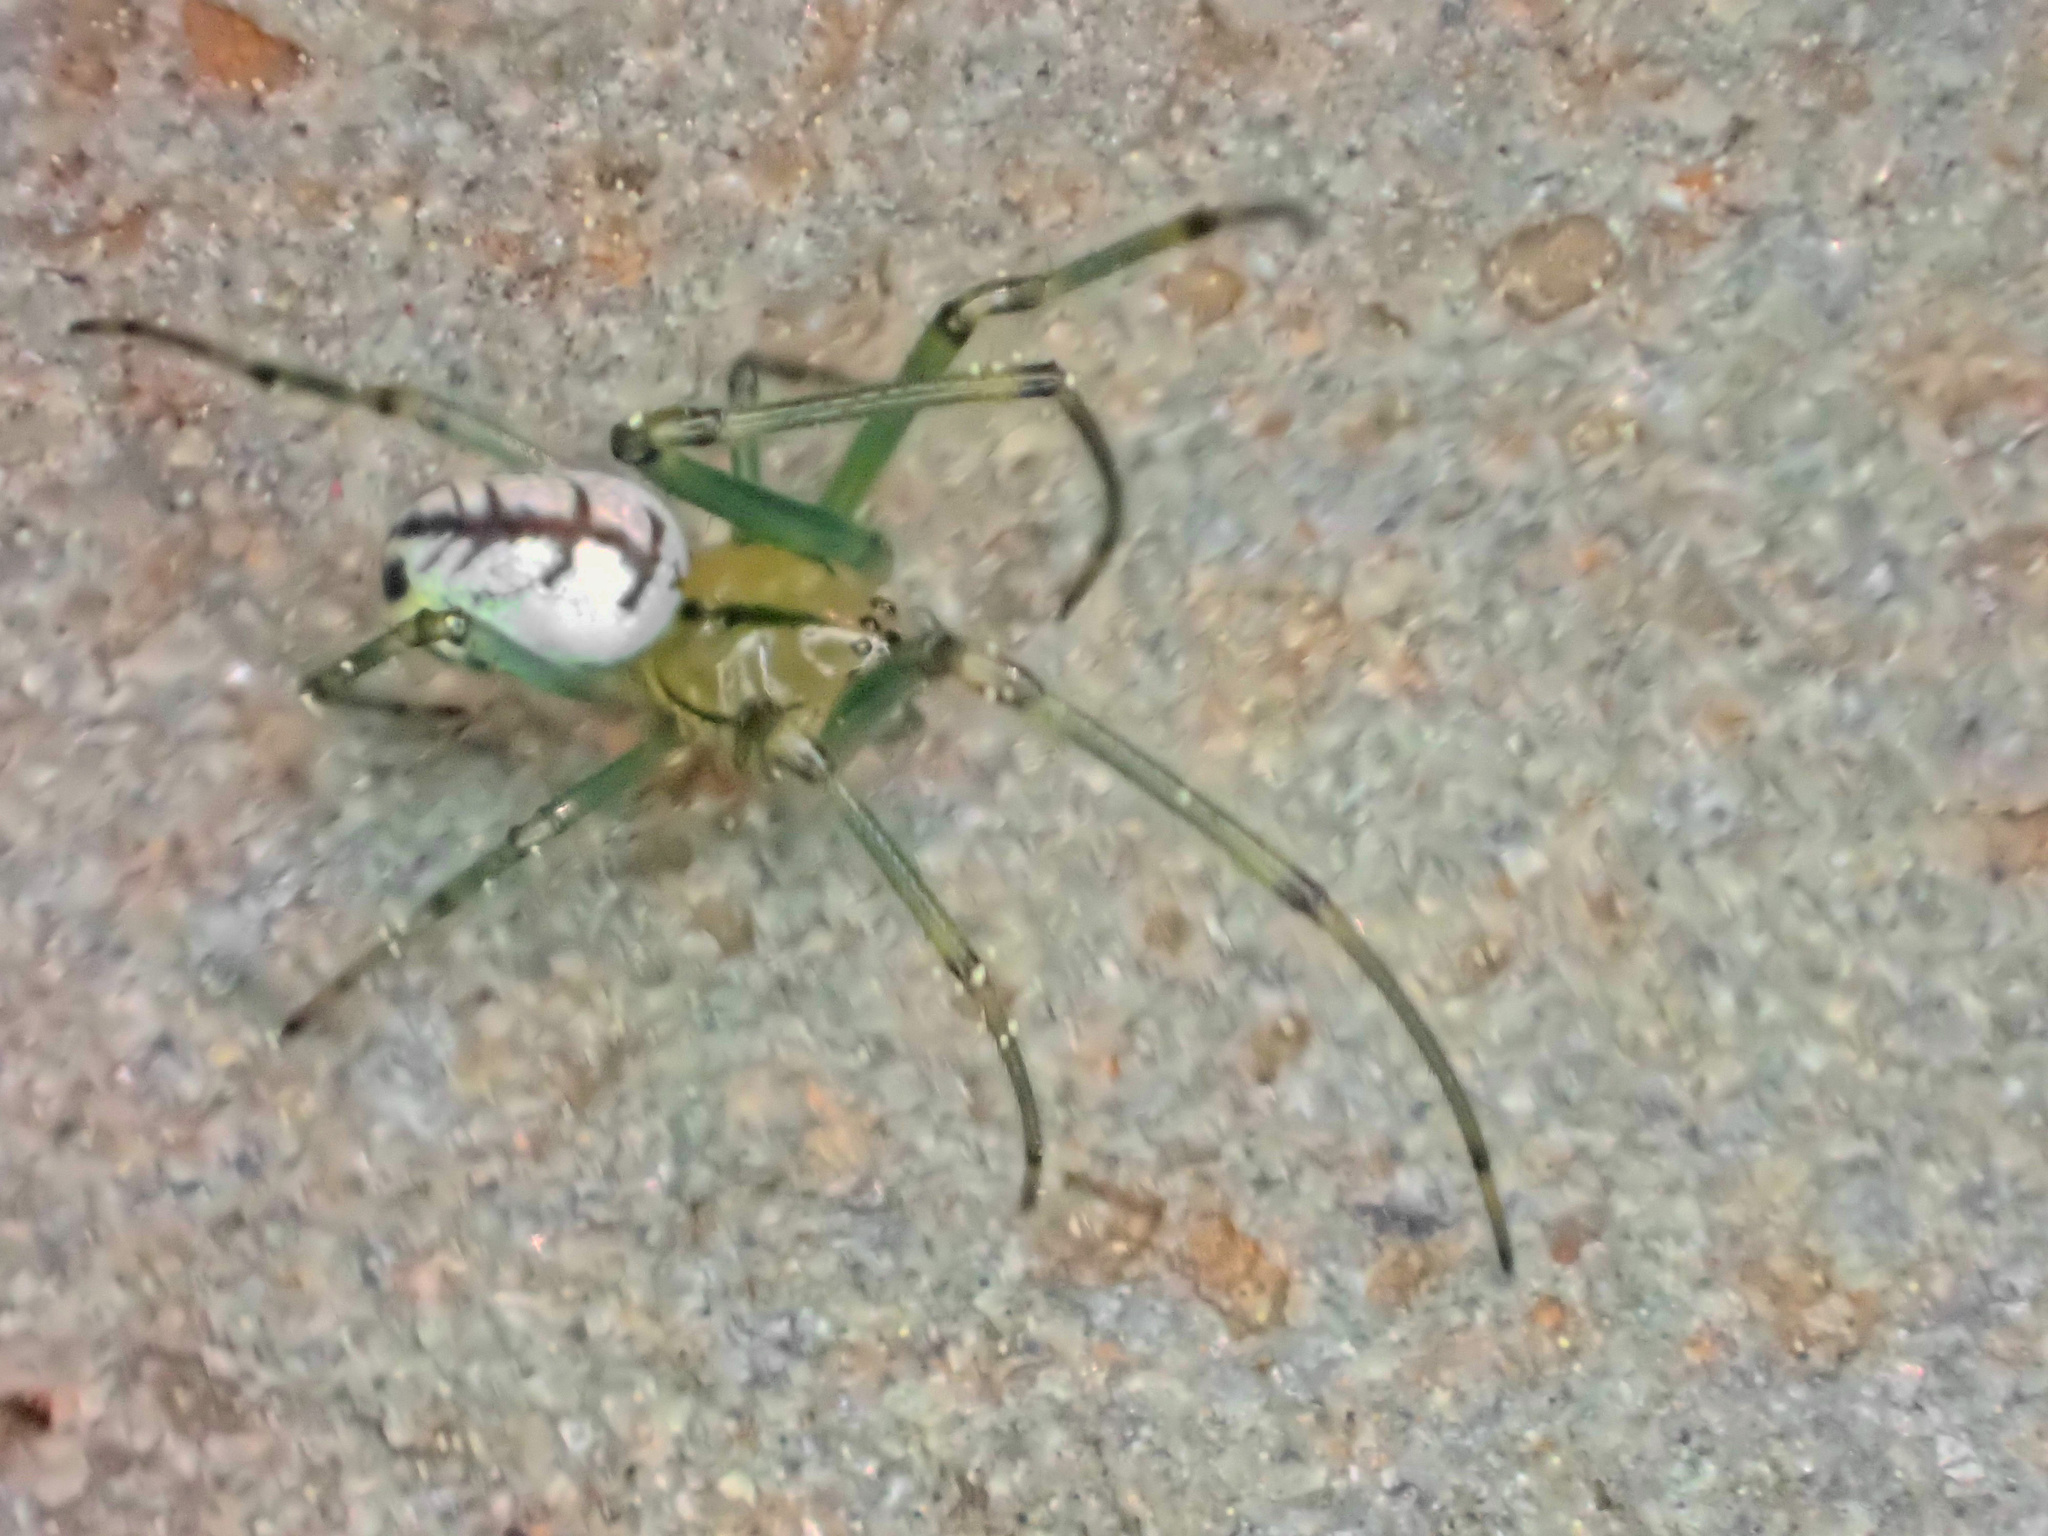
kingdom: Animalia
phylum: Arthropoda
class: Arachnida
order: Araneae
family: Tetragnathidae
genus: Leucauge
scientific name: Leucauge venusta
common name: Longjawed orb weavers
